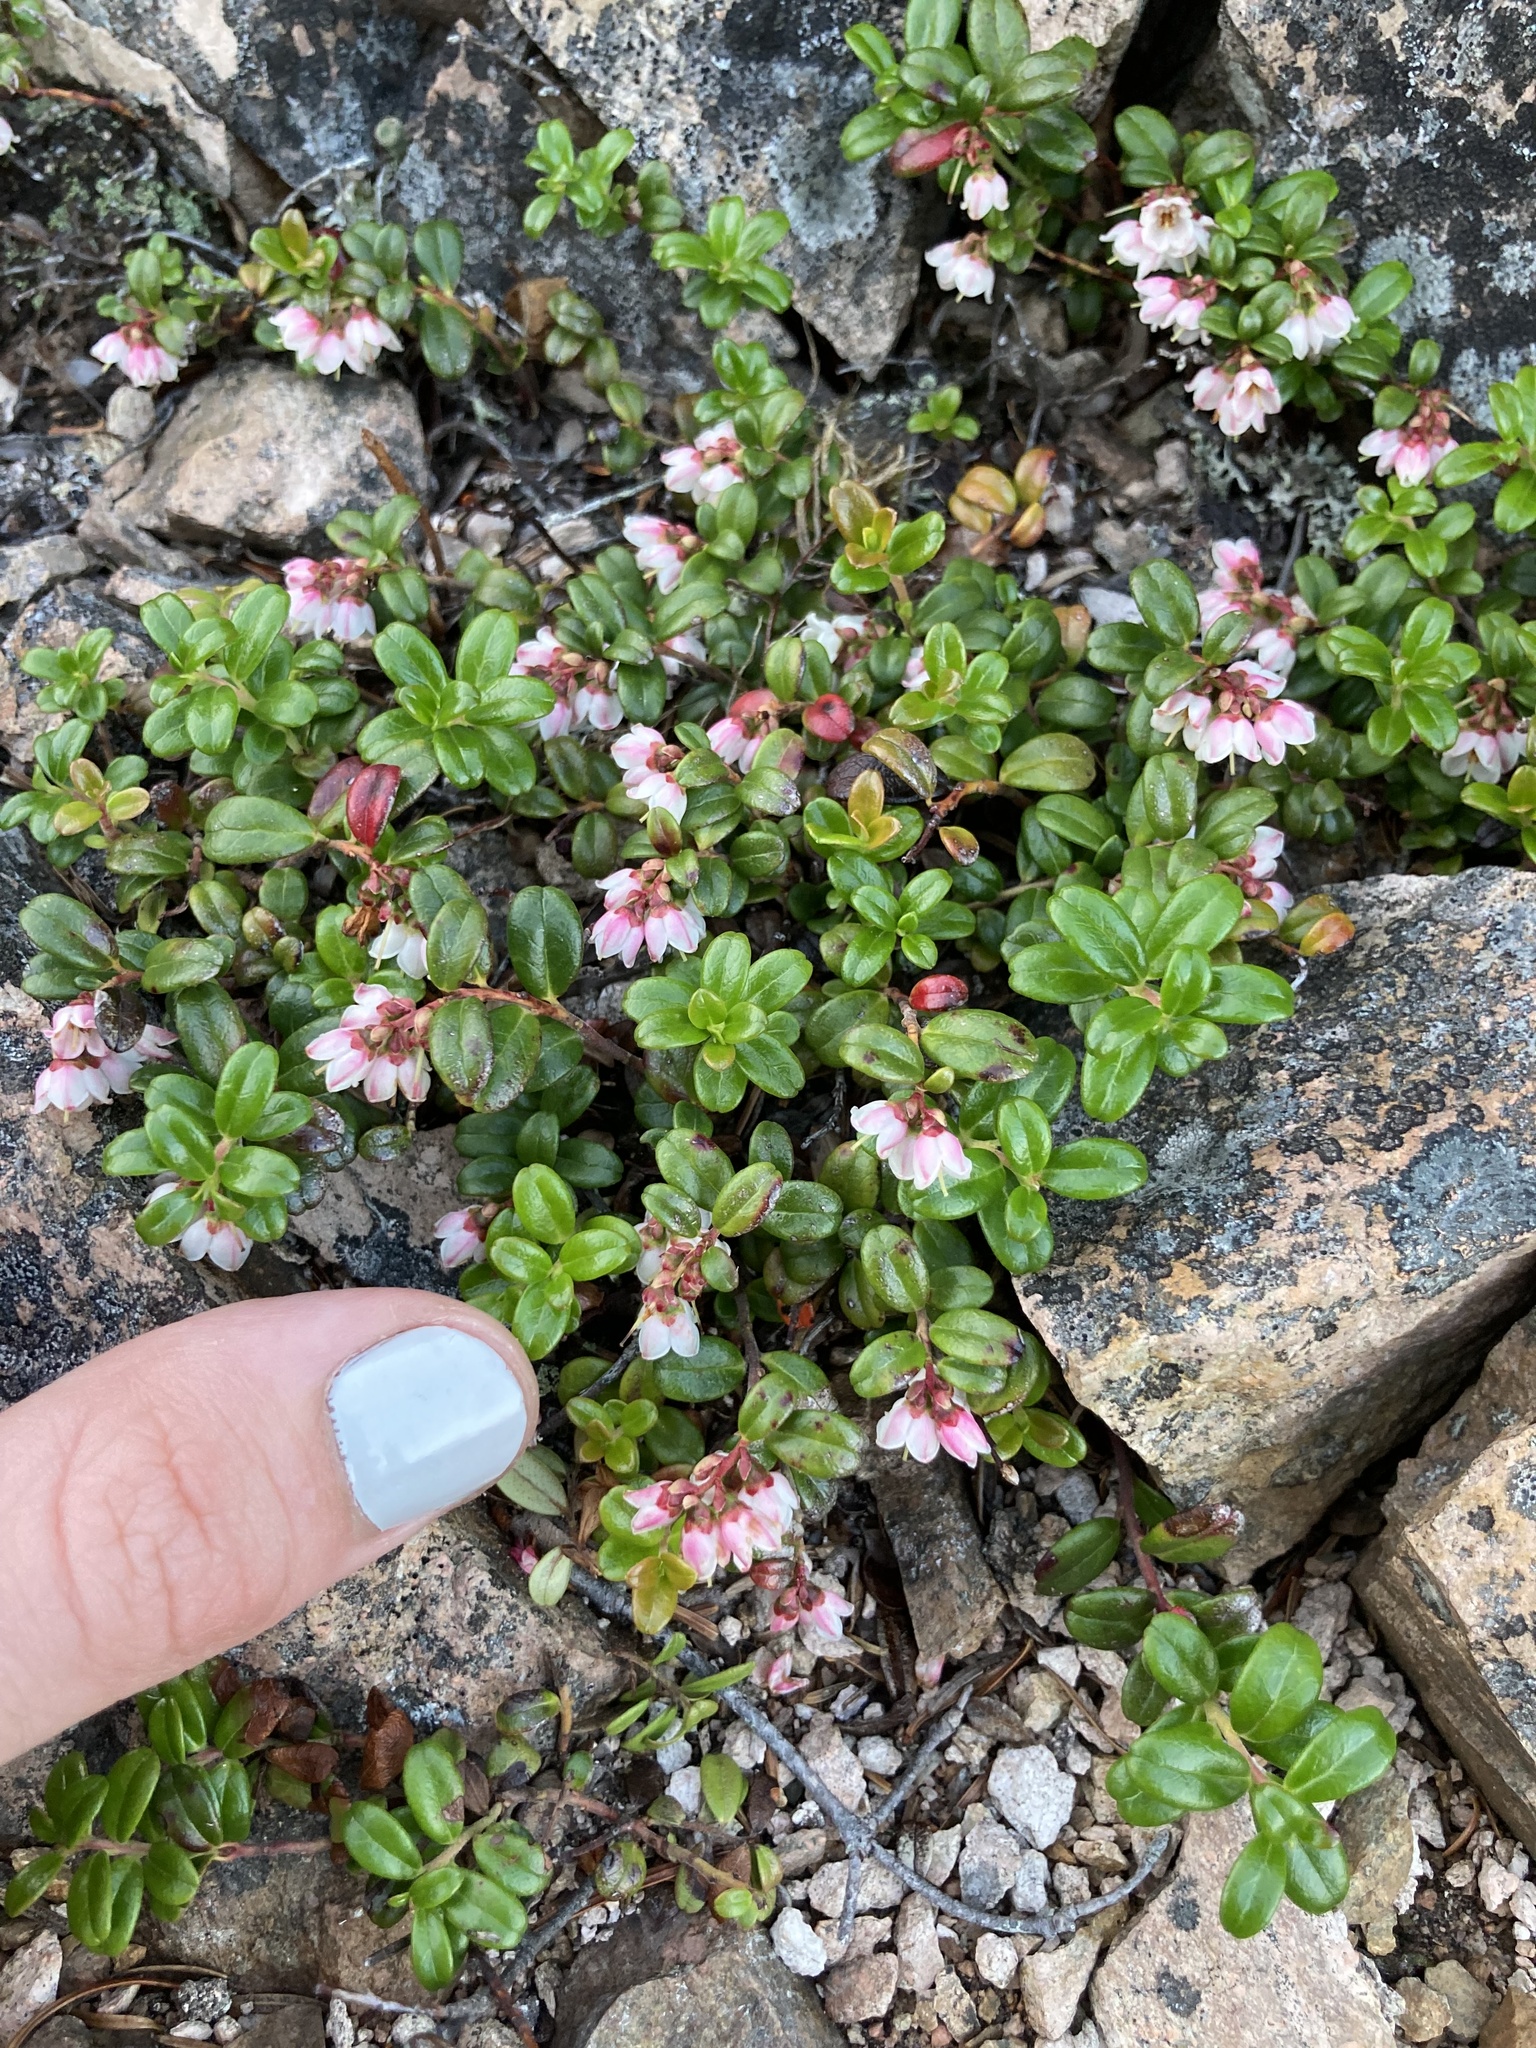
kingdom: Plantae
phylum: Tracheophyta
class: Magnoliopsida
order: Ericales
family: Ericaceae
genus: Vaccinium
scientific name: Vaccinium vitis-idaea
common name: Cowberry
